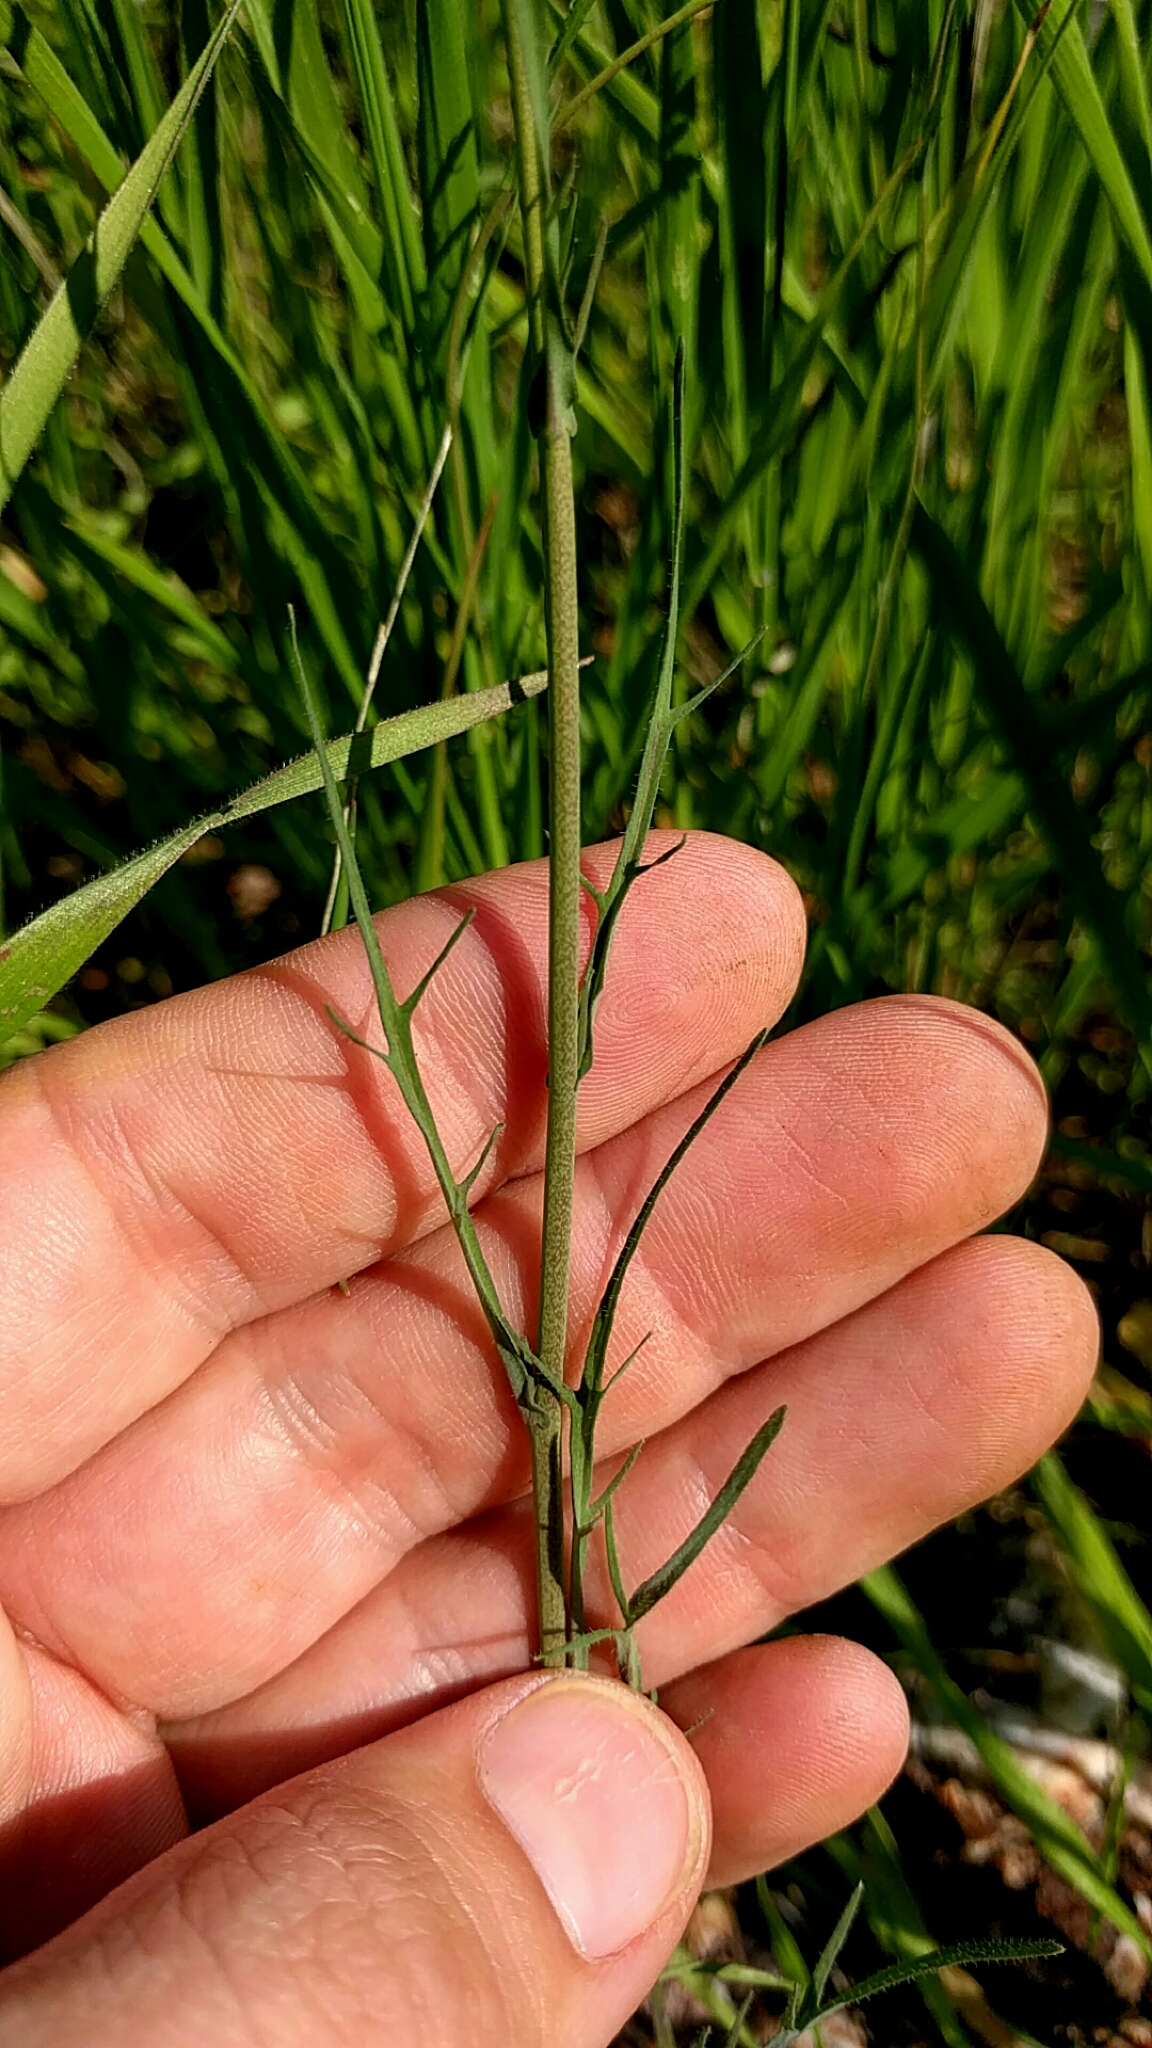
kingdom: Plantae
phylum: Tracheophyta
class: Magnoliopsida
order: Brassicales
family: Brassicaceae
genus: Thysanocarpus
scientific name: Thysanocarpus laciniatus
